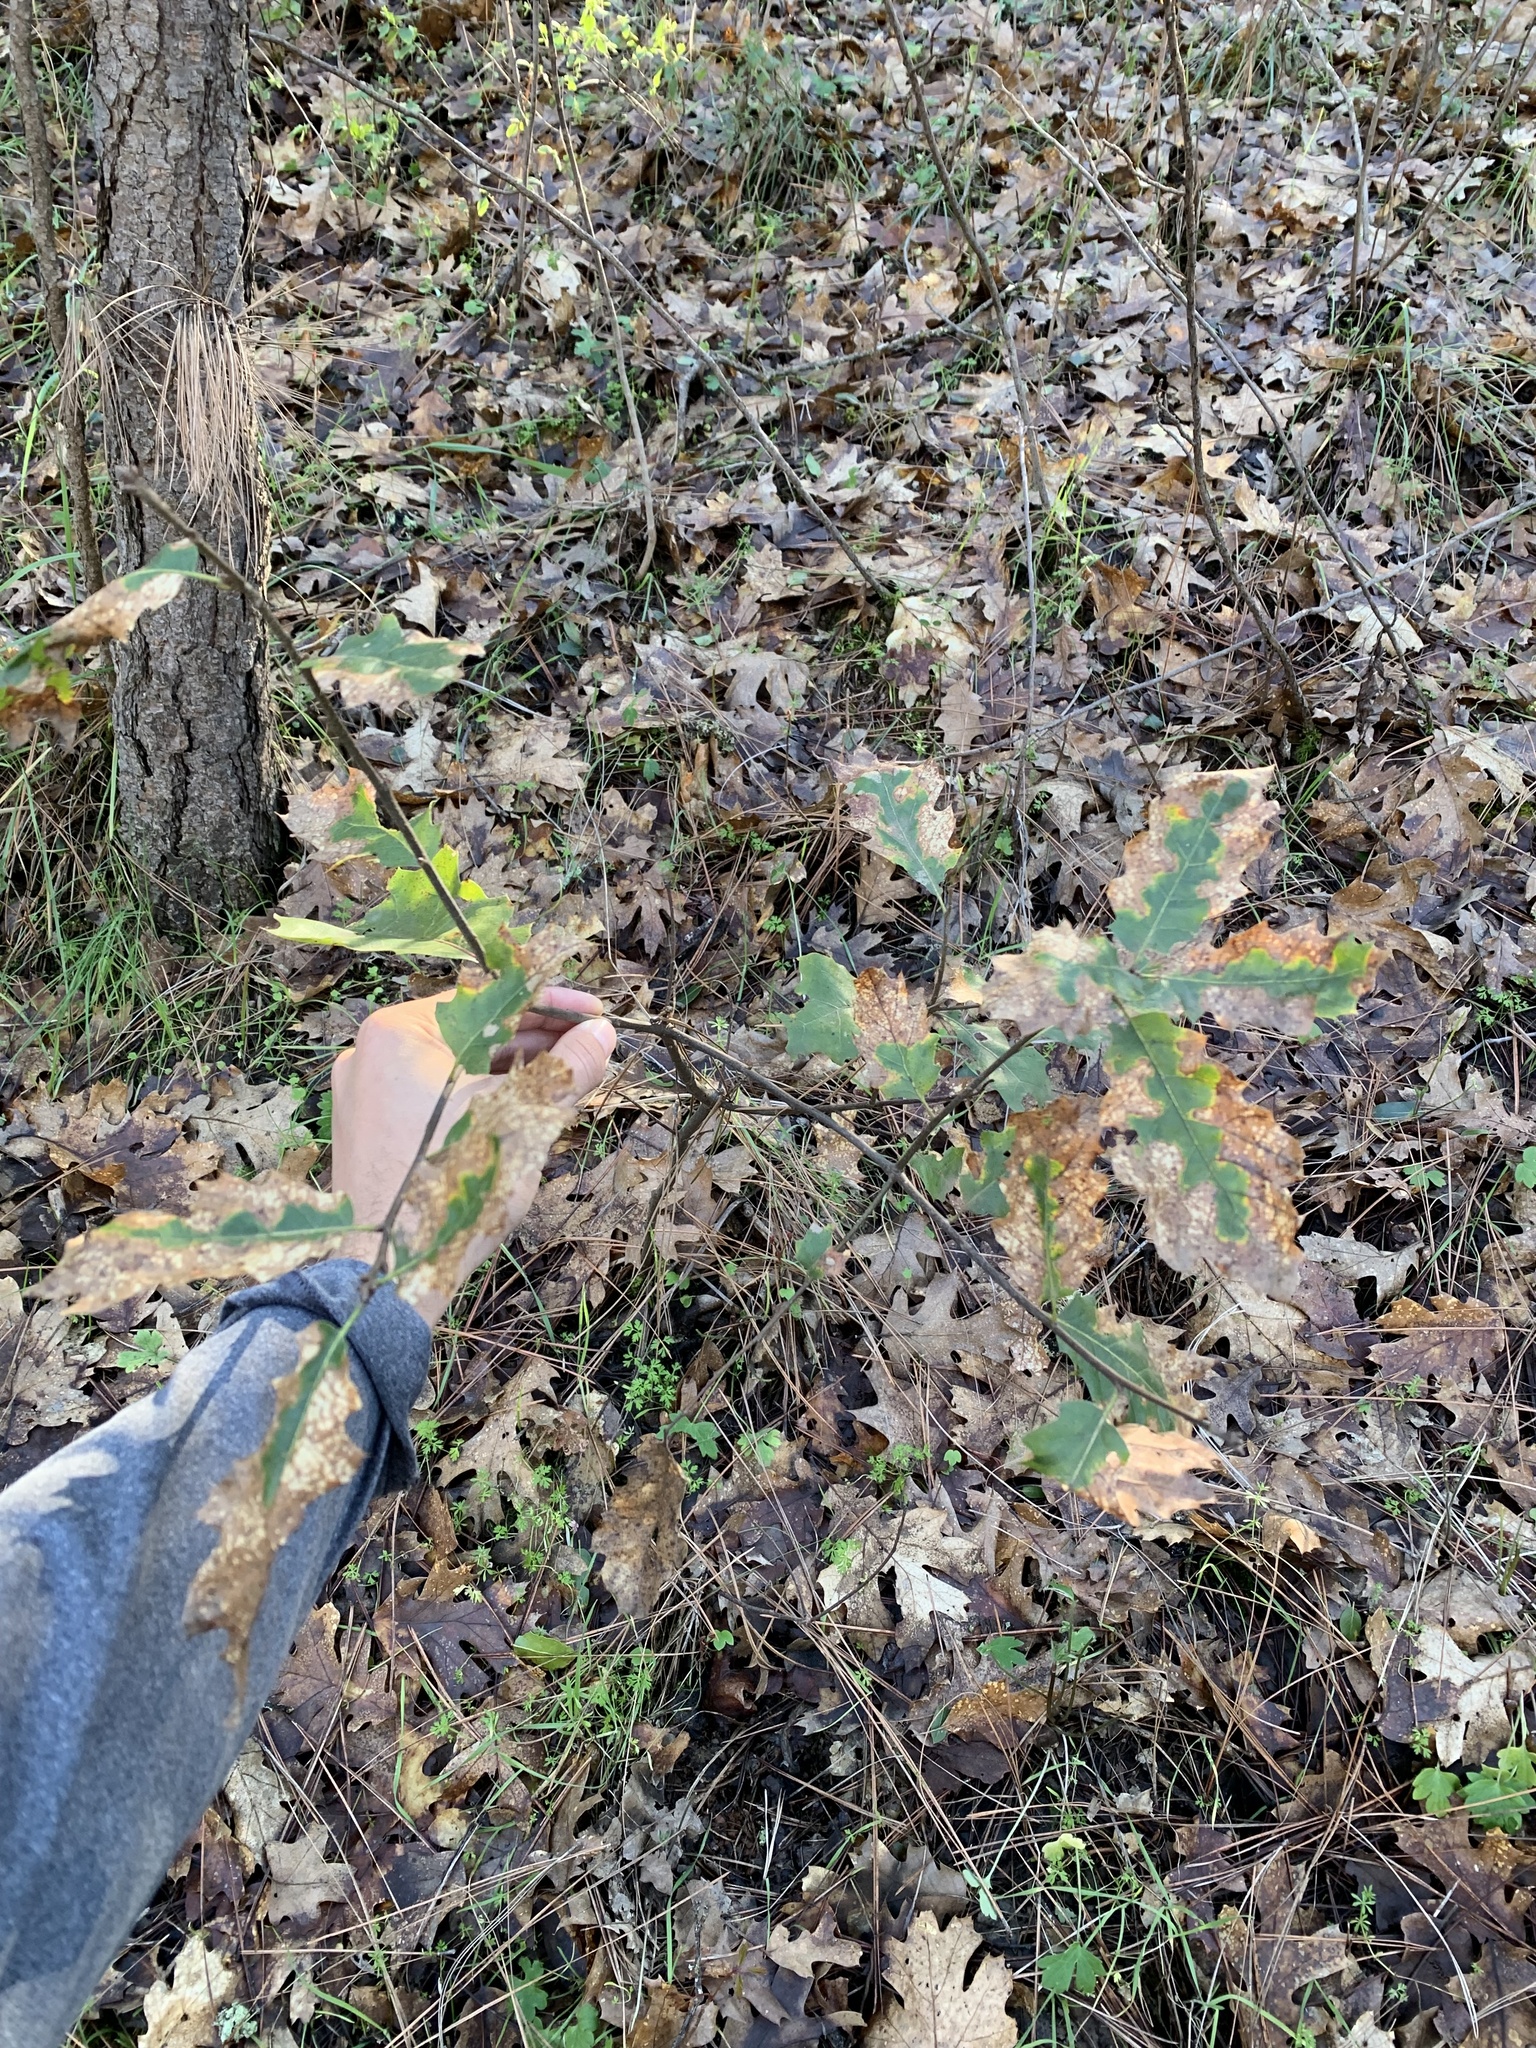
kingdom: Plantae
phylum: Tracheophyta
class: Magnoliopsida
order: Fagales
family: Fagaceae
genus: Quercus
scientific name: Quercus morehus
